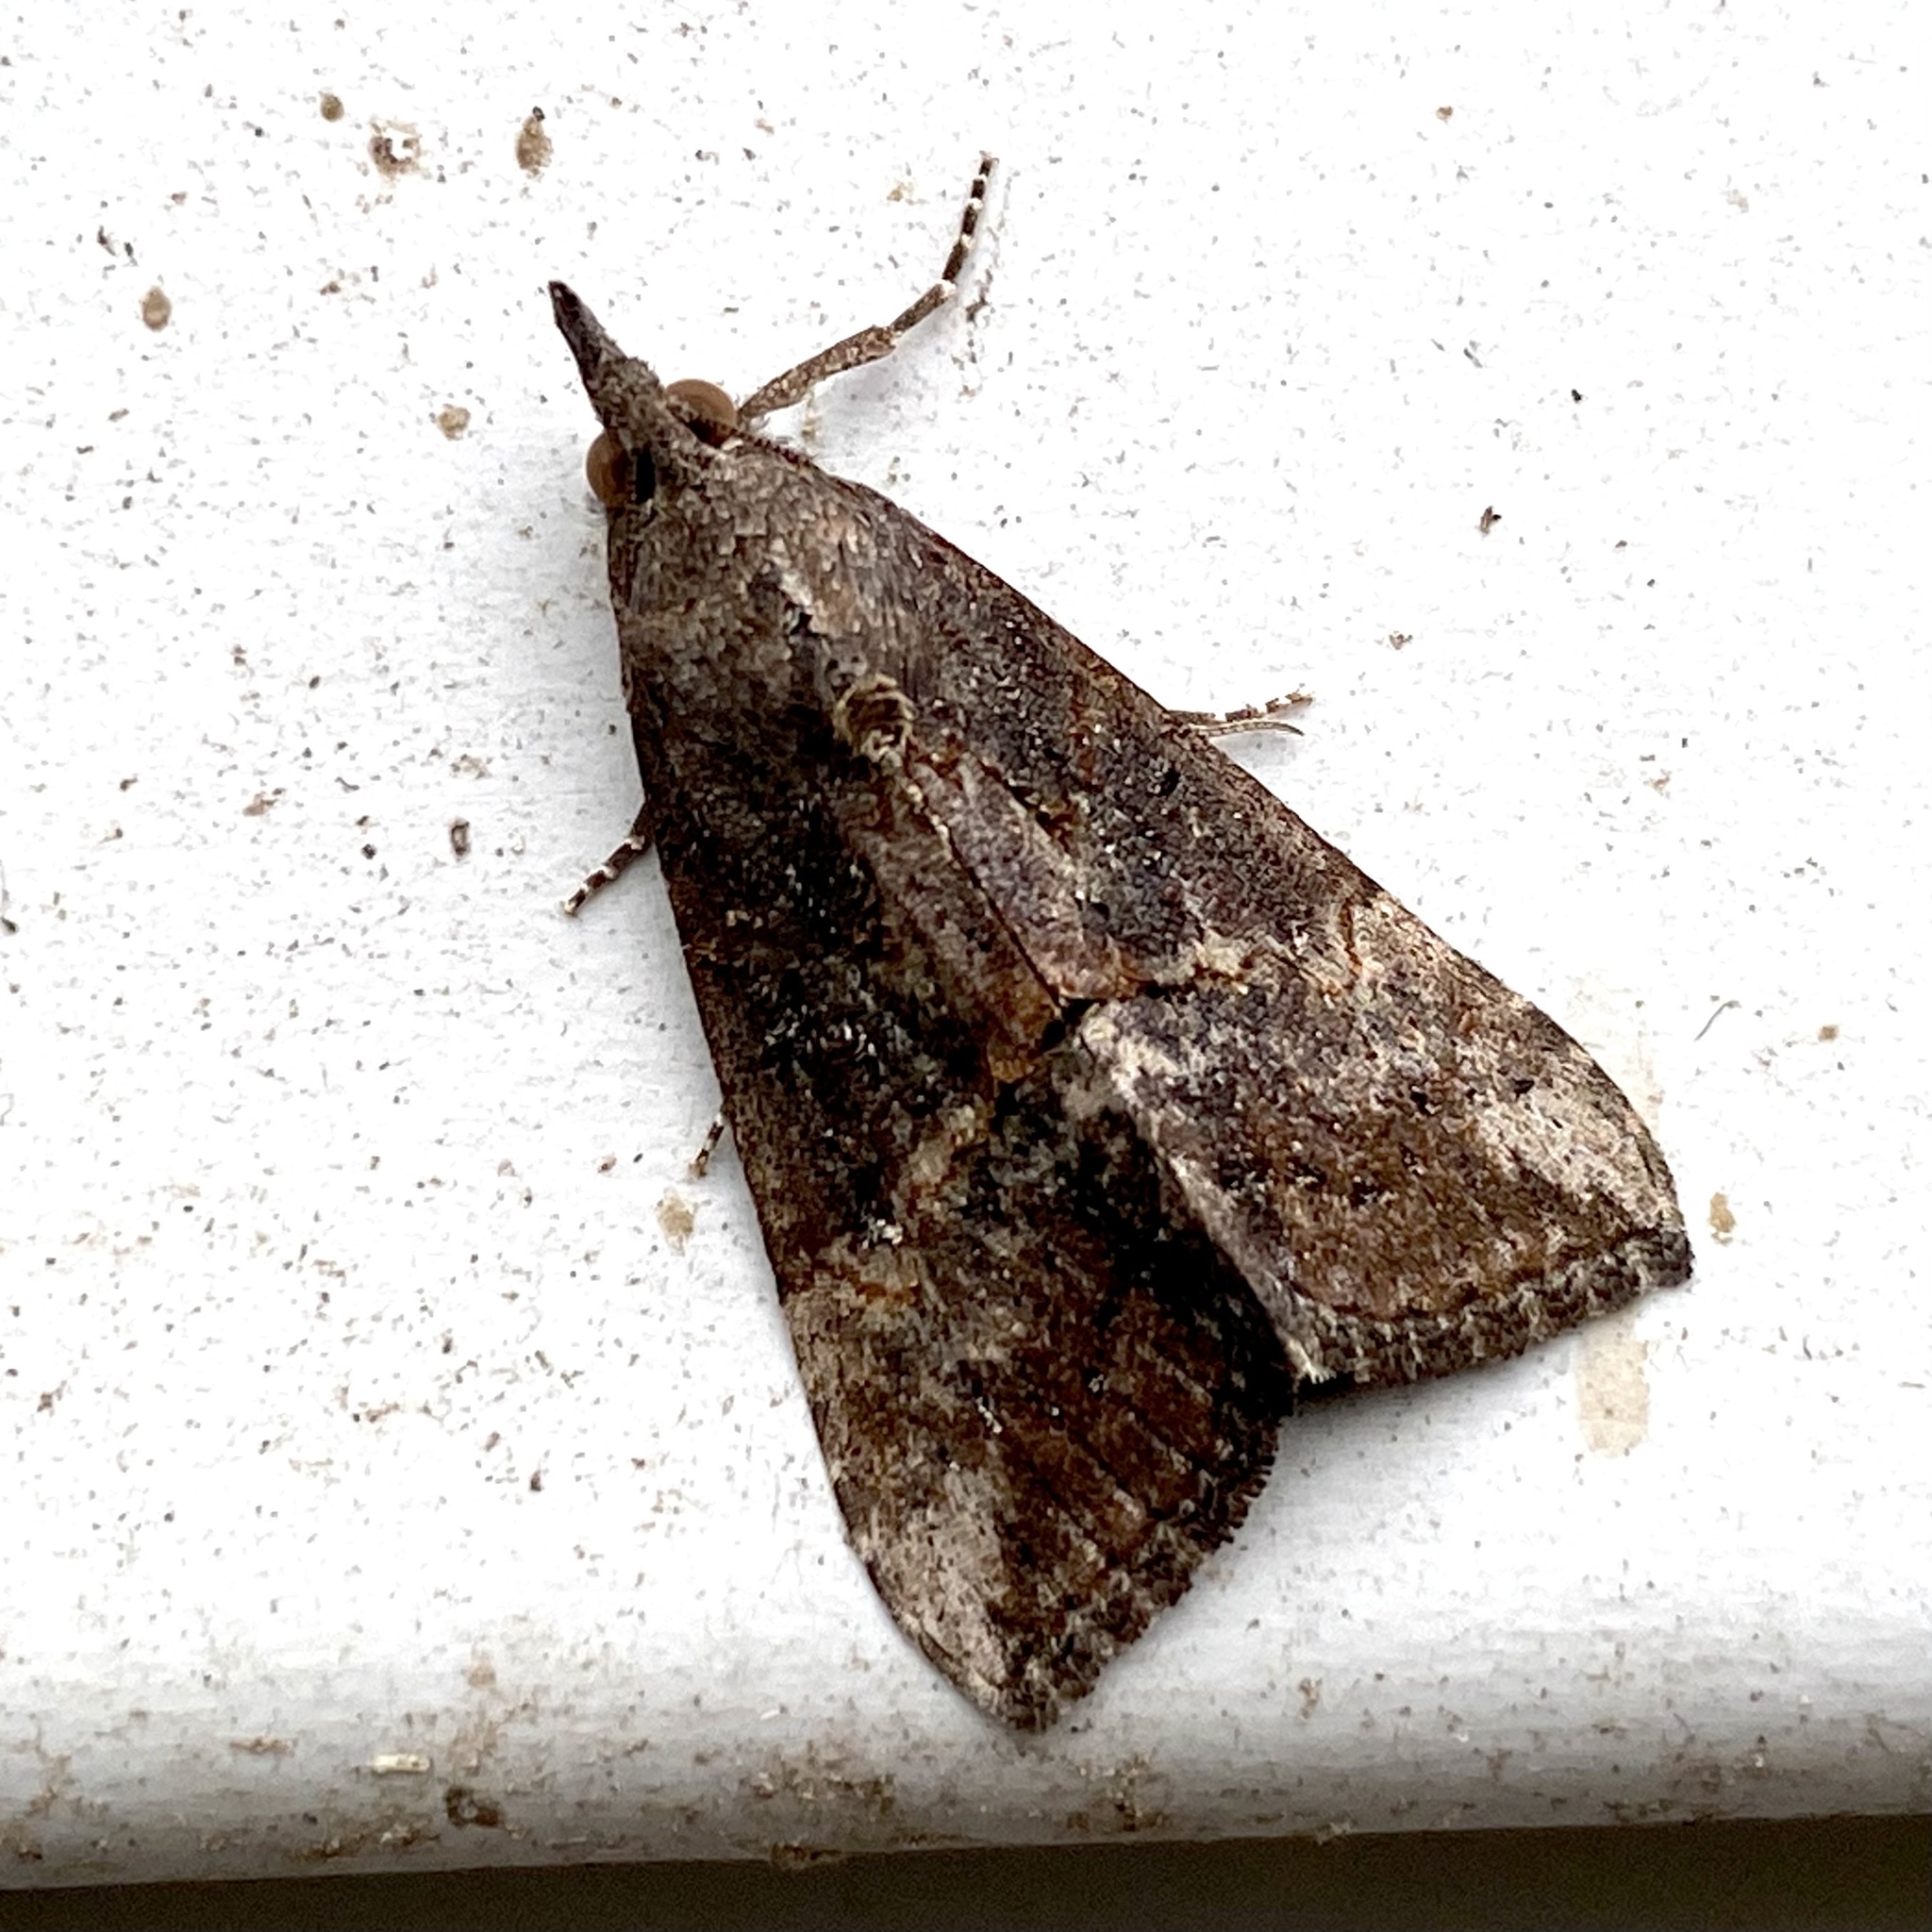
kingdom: Animalia
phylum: Arthropoda
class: Insecta
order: Lepidoptera
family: Erebidae
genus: Hypena
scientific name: Hypena scabra
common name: Green cloverworm
